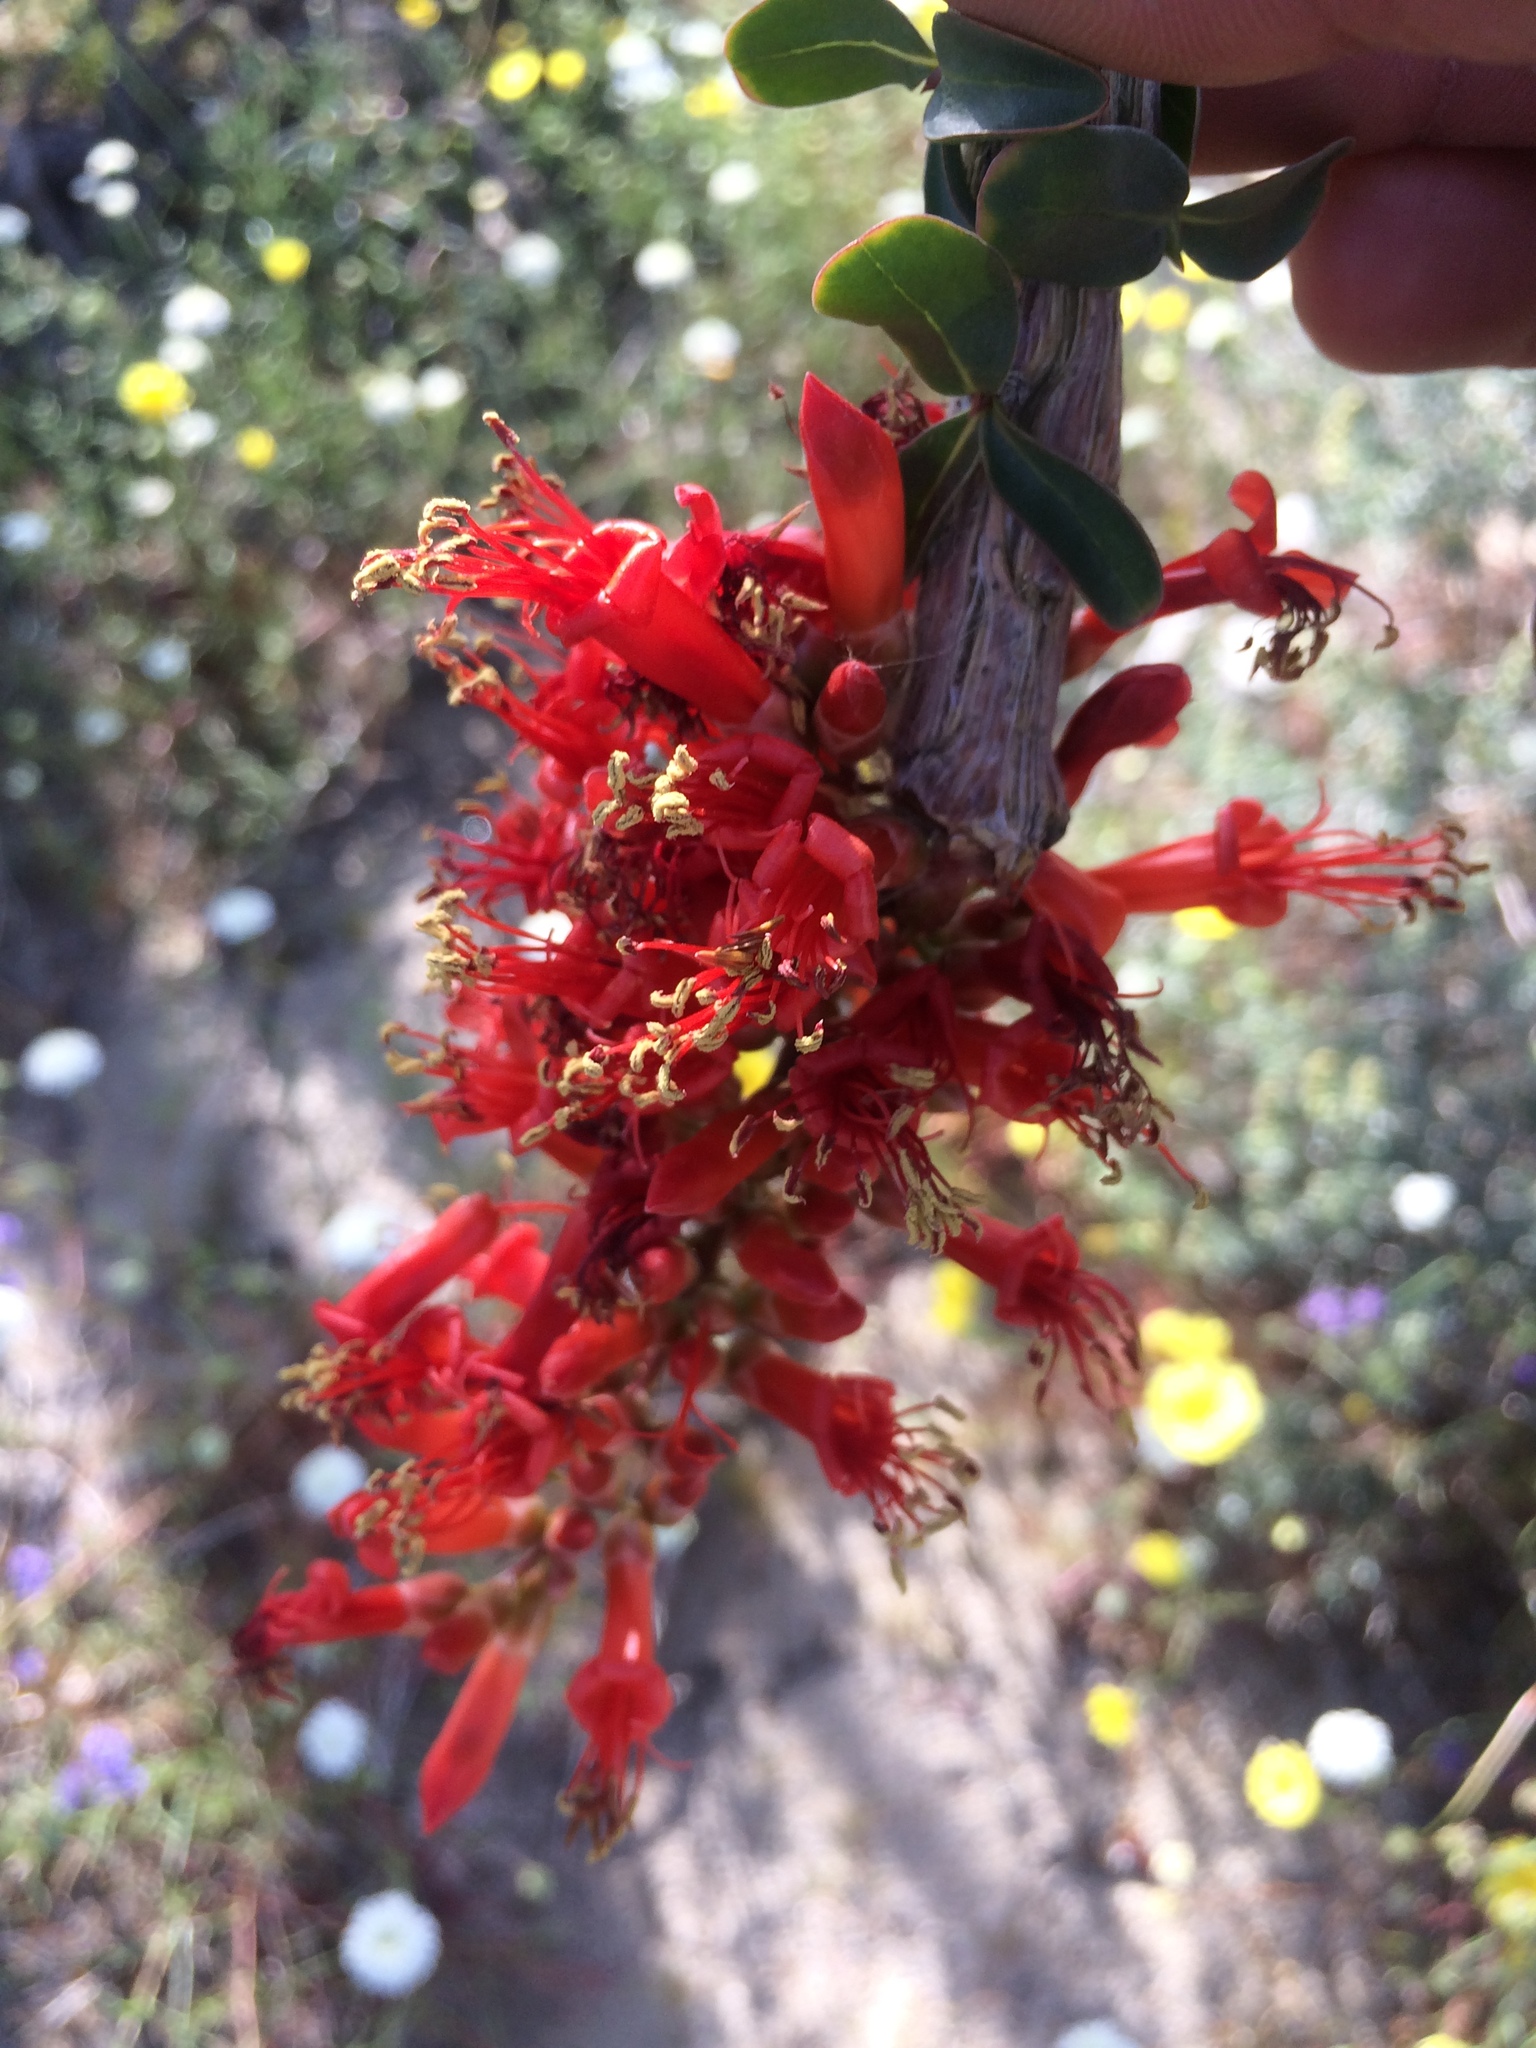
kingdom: Plantae
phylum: Tracheophyta
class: Magnoliopsida
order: Ericales
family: Fouquieriaceae
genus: Fouquieria
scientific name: Fouquieria splendens
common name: Vine-cactus
